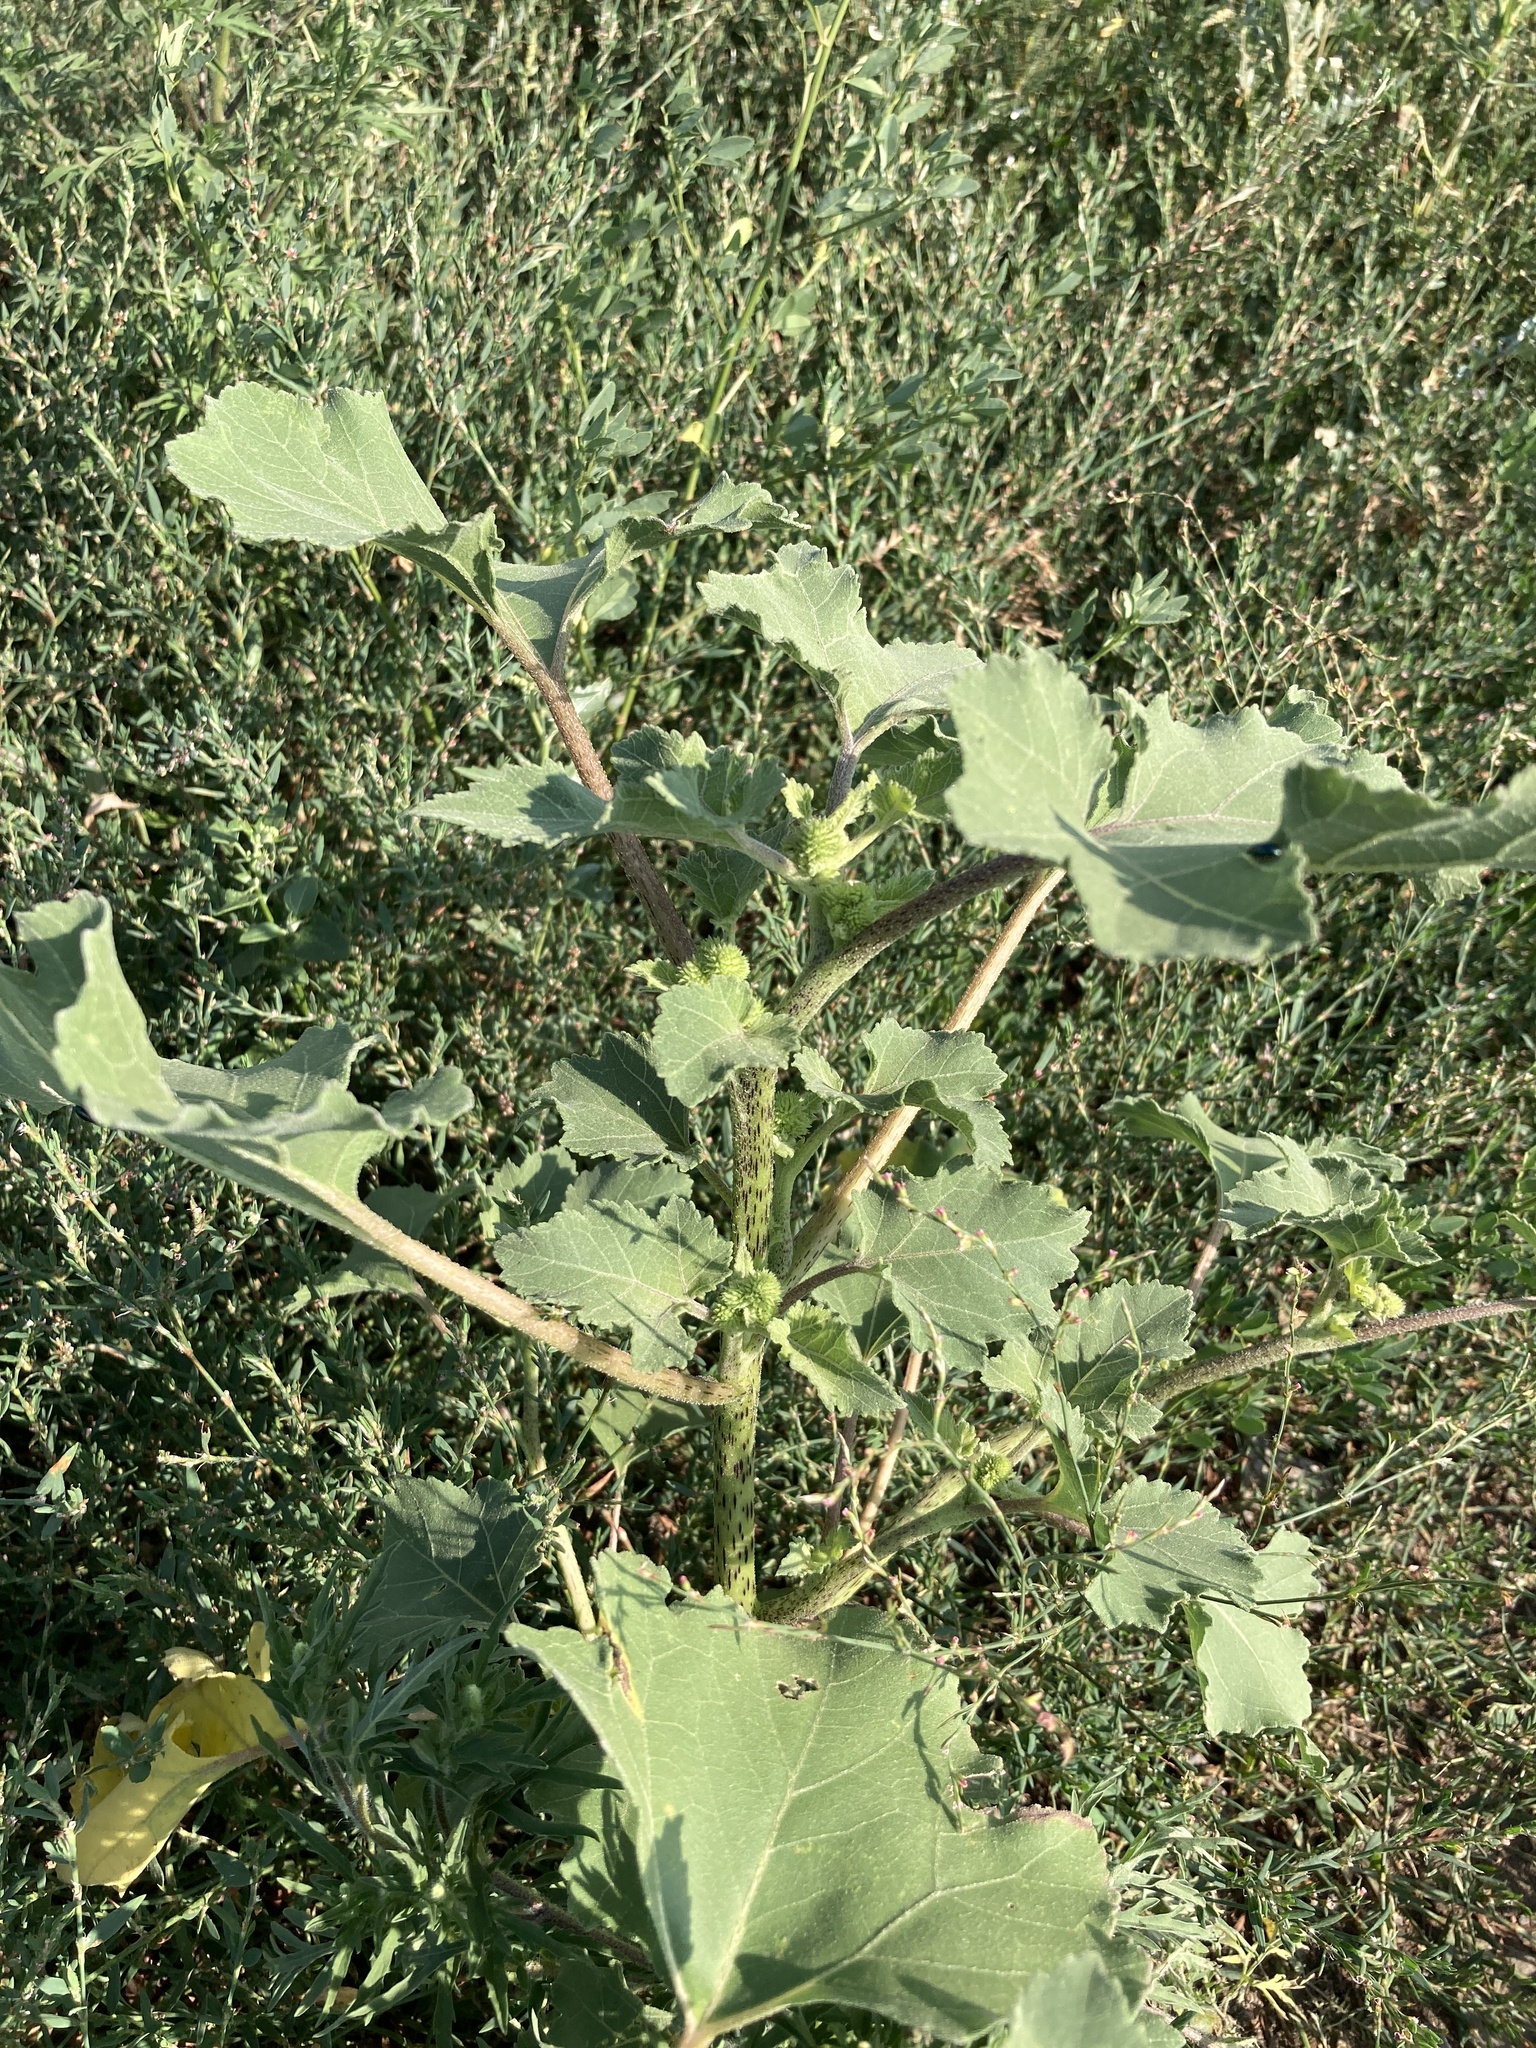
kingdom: Plantae
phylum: Tracheophyta
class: Magnoliopsida
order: Asterales
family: Asteraceae
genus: Xanthium
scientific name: Xanthium orientale
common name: Californian burr
